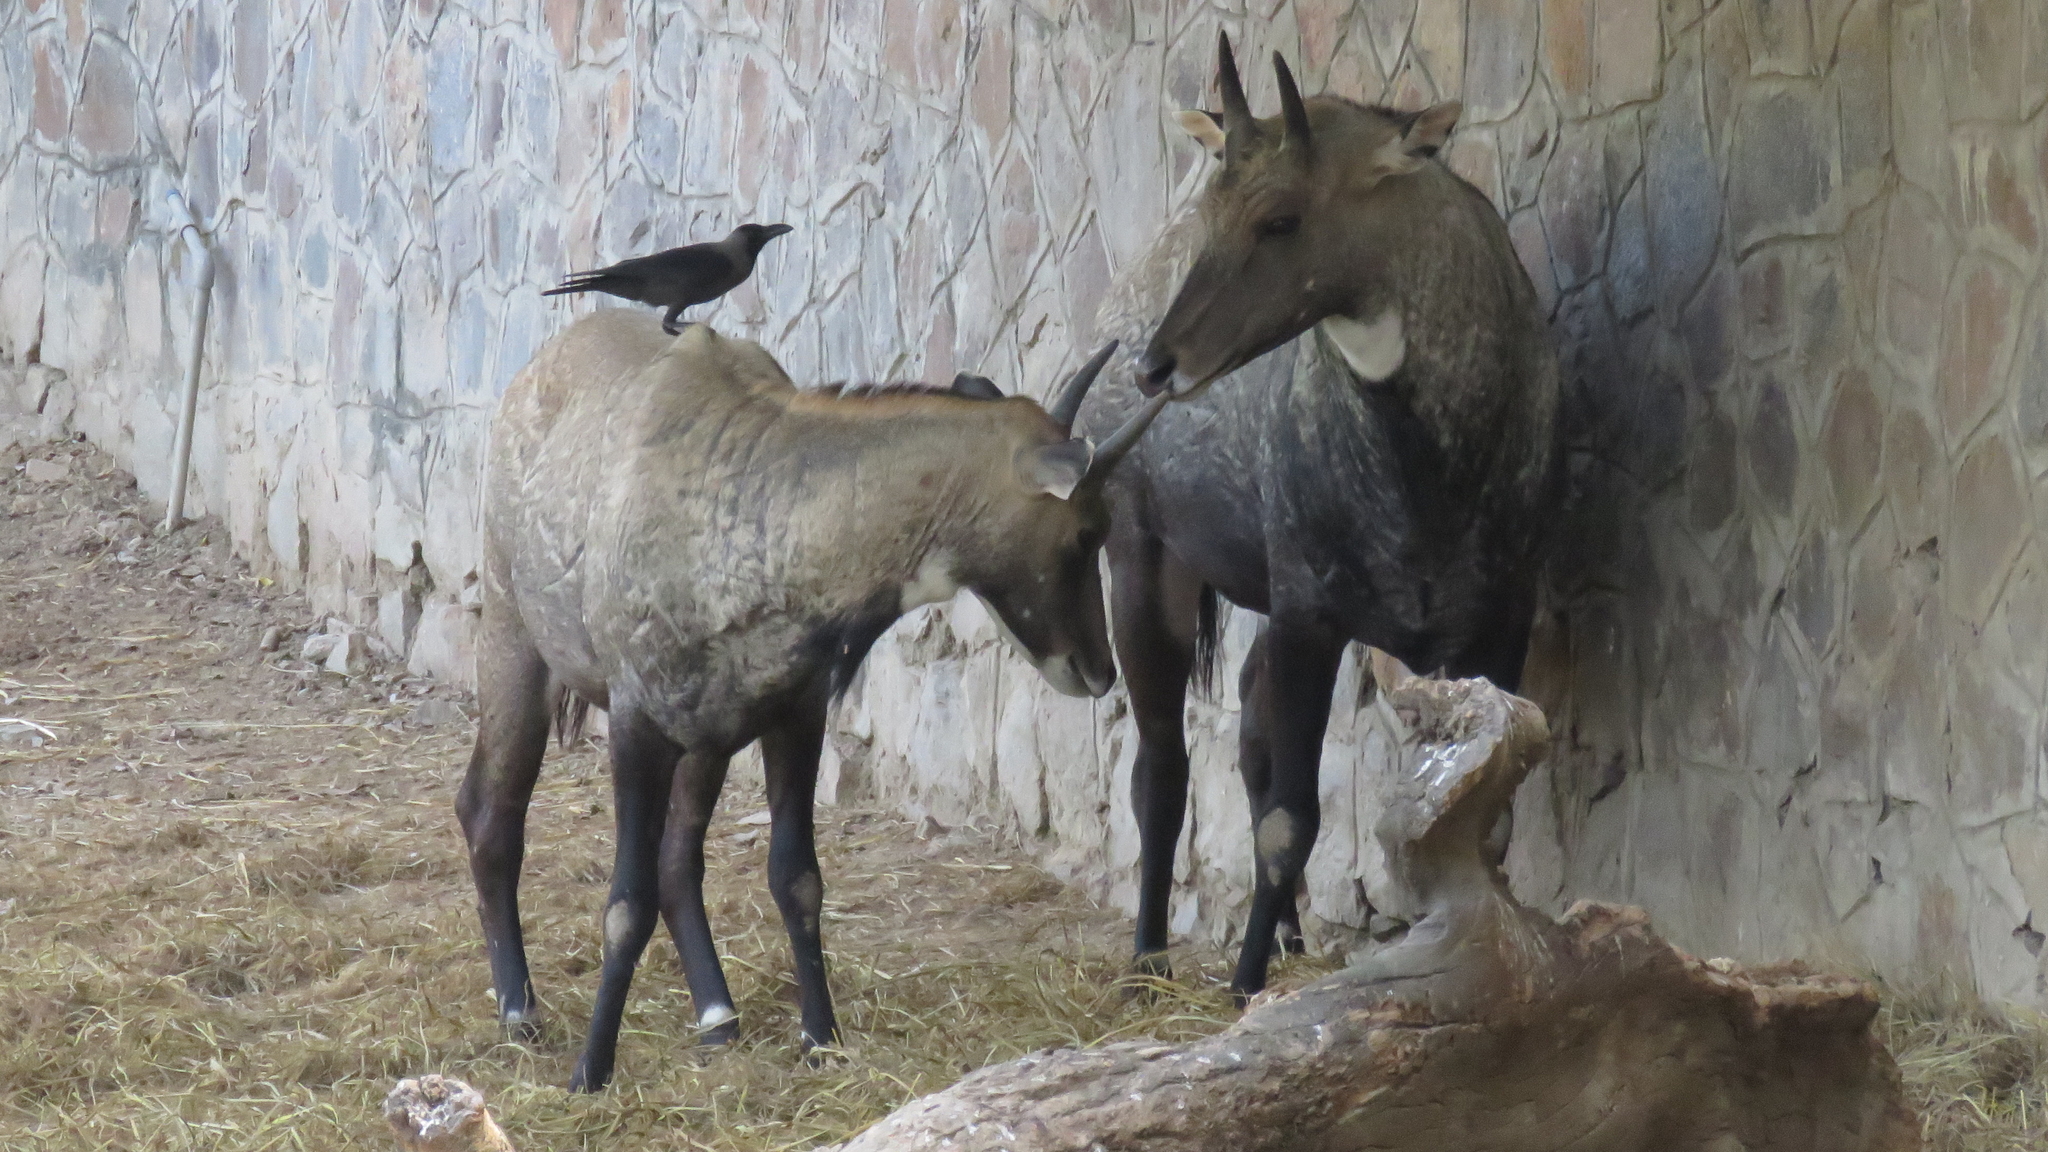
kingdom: Animalia
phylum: Chordata
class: Aves
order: Passeriformes
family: Corvidae
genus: Corvus
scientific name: Corvus splendens
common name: House crow
